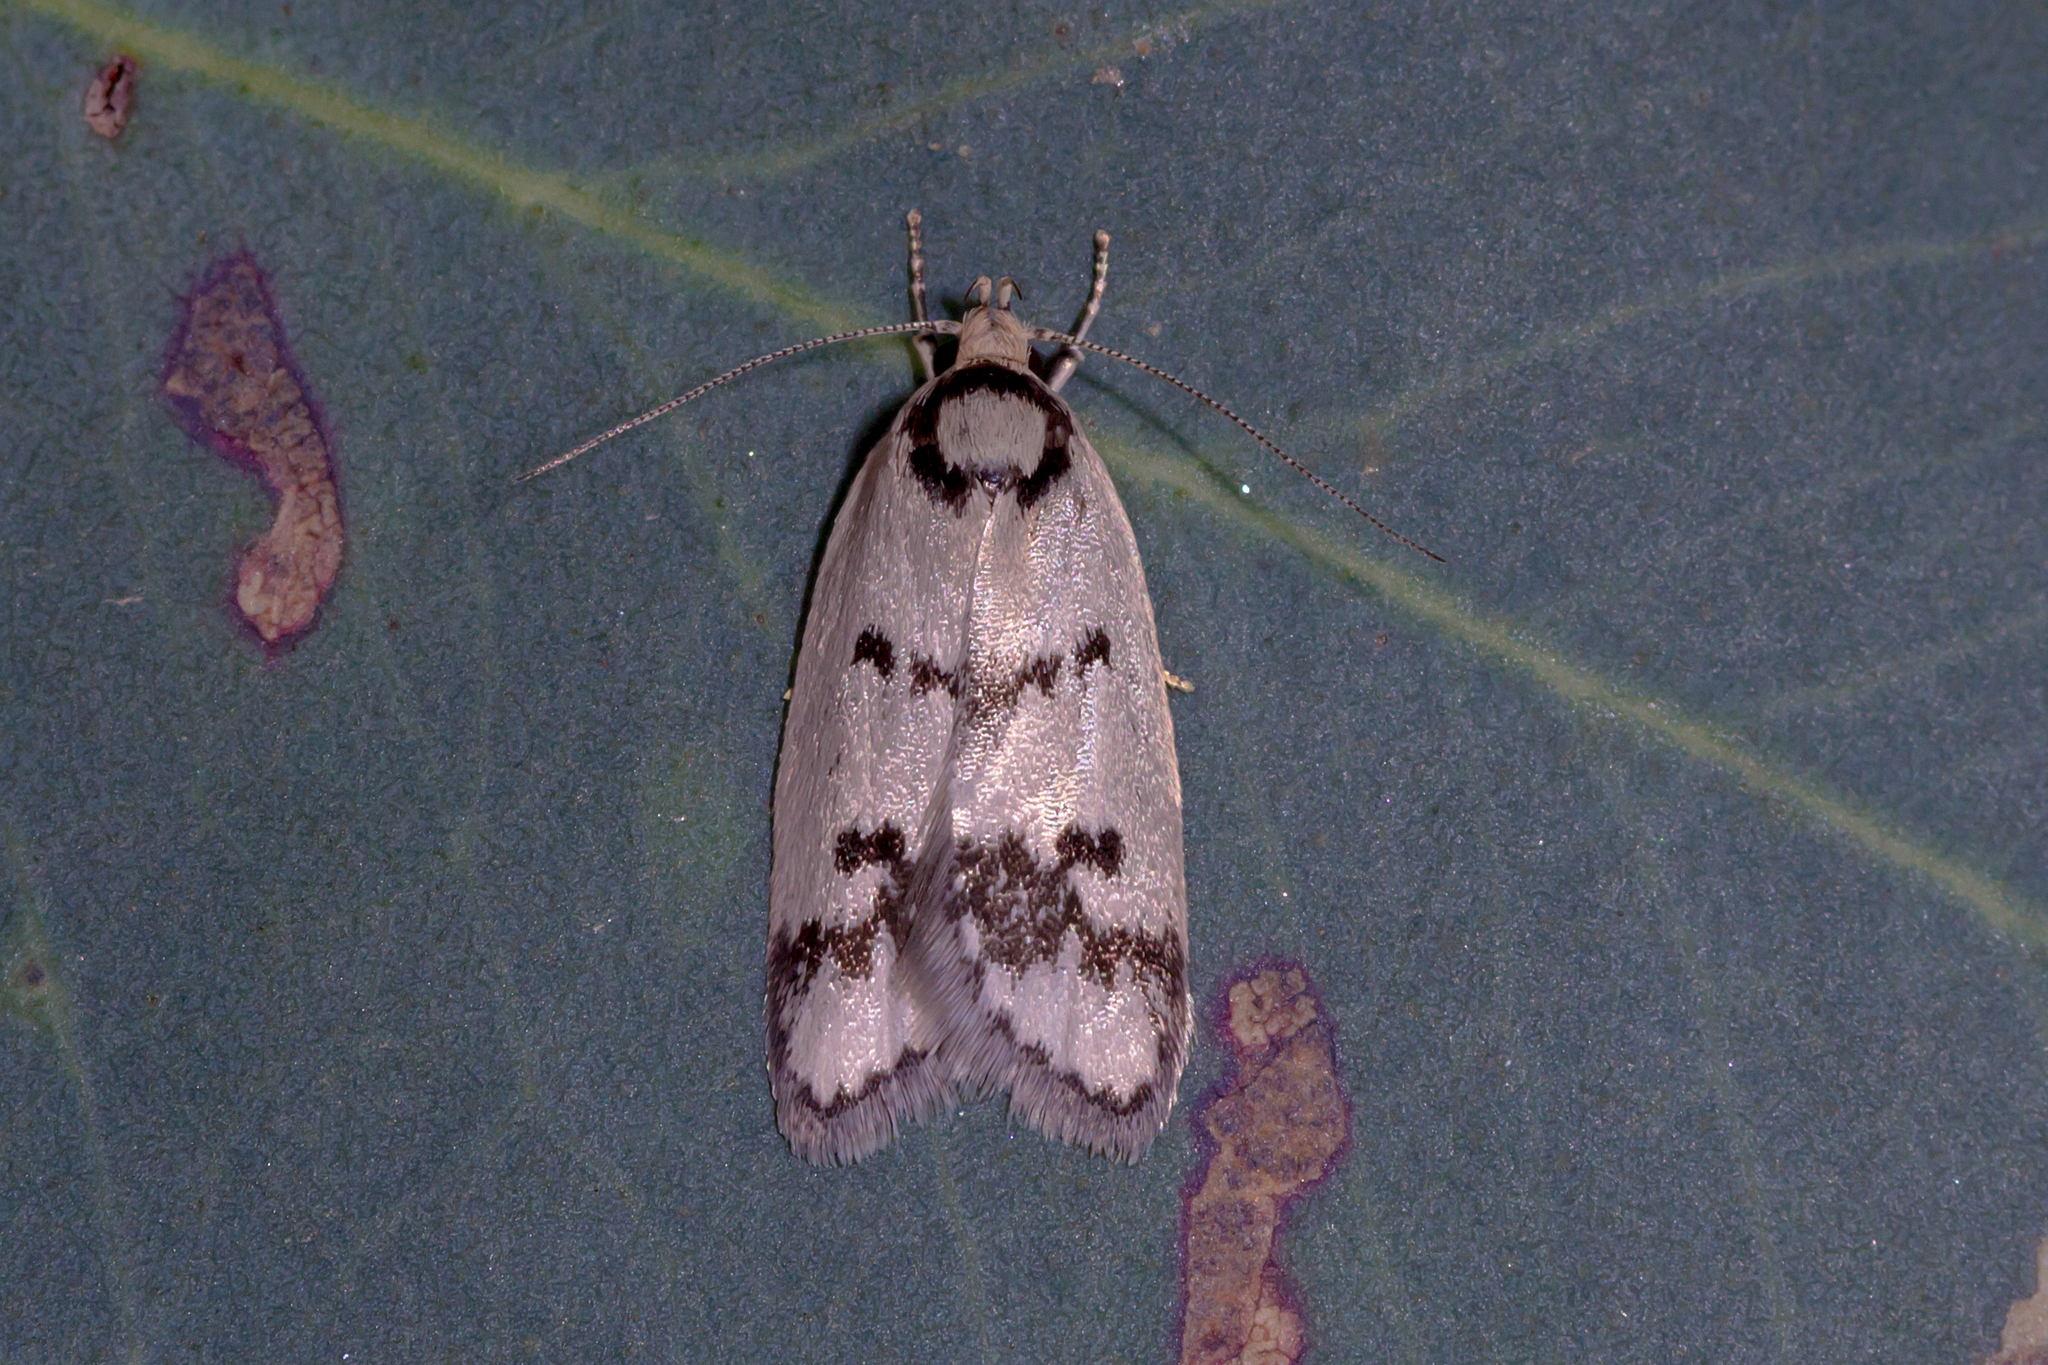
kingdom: Animalia
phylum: Arthropoda
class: Insecta
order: Lepidoptera
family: Oecophoridae
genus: Compsotropha
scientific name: Compsotropha selenias
